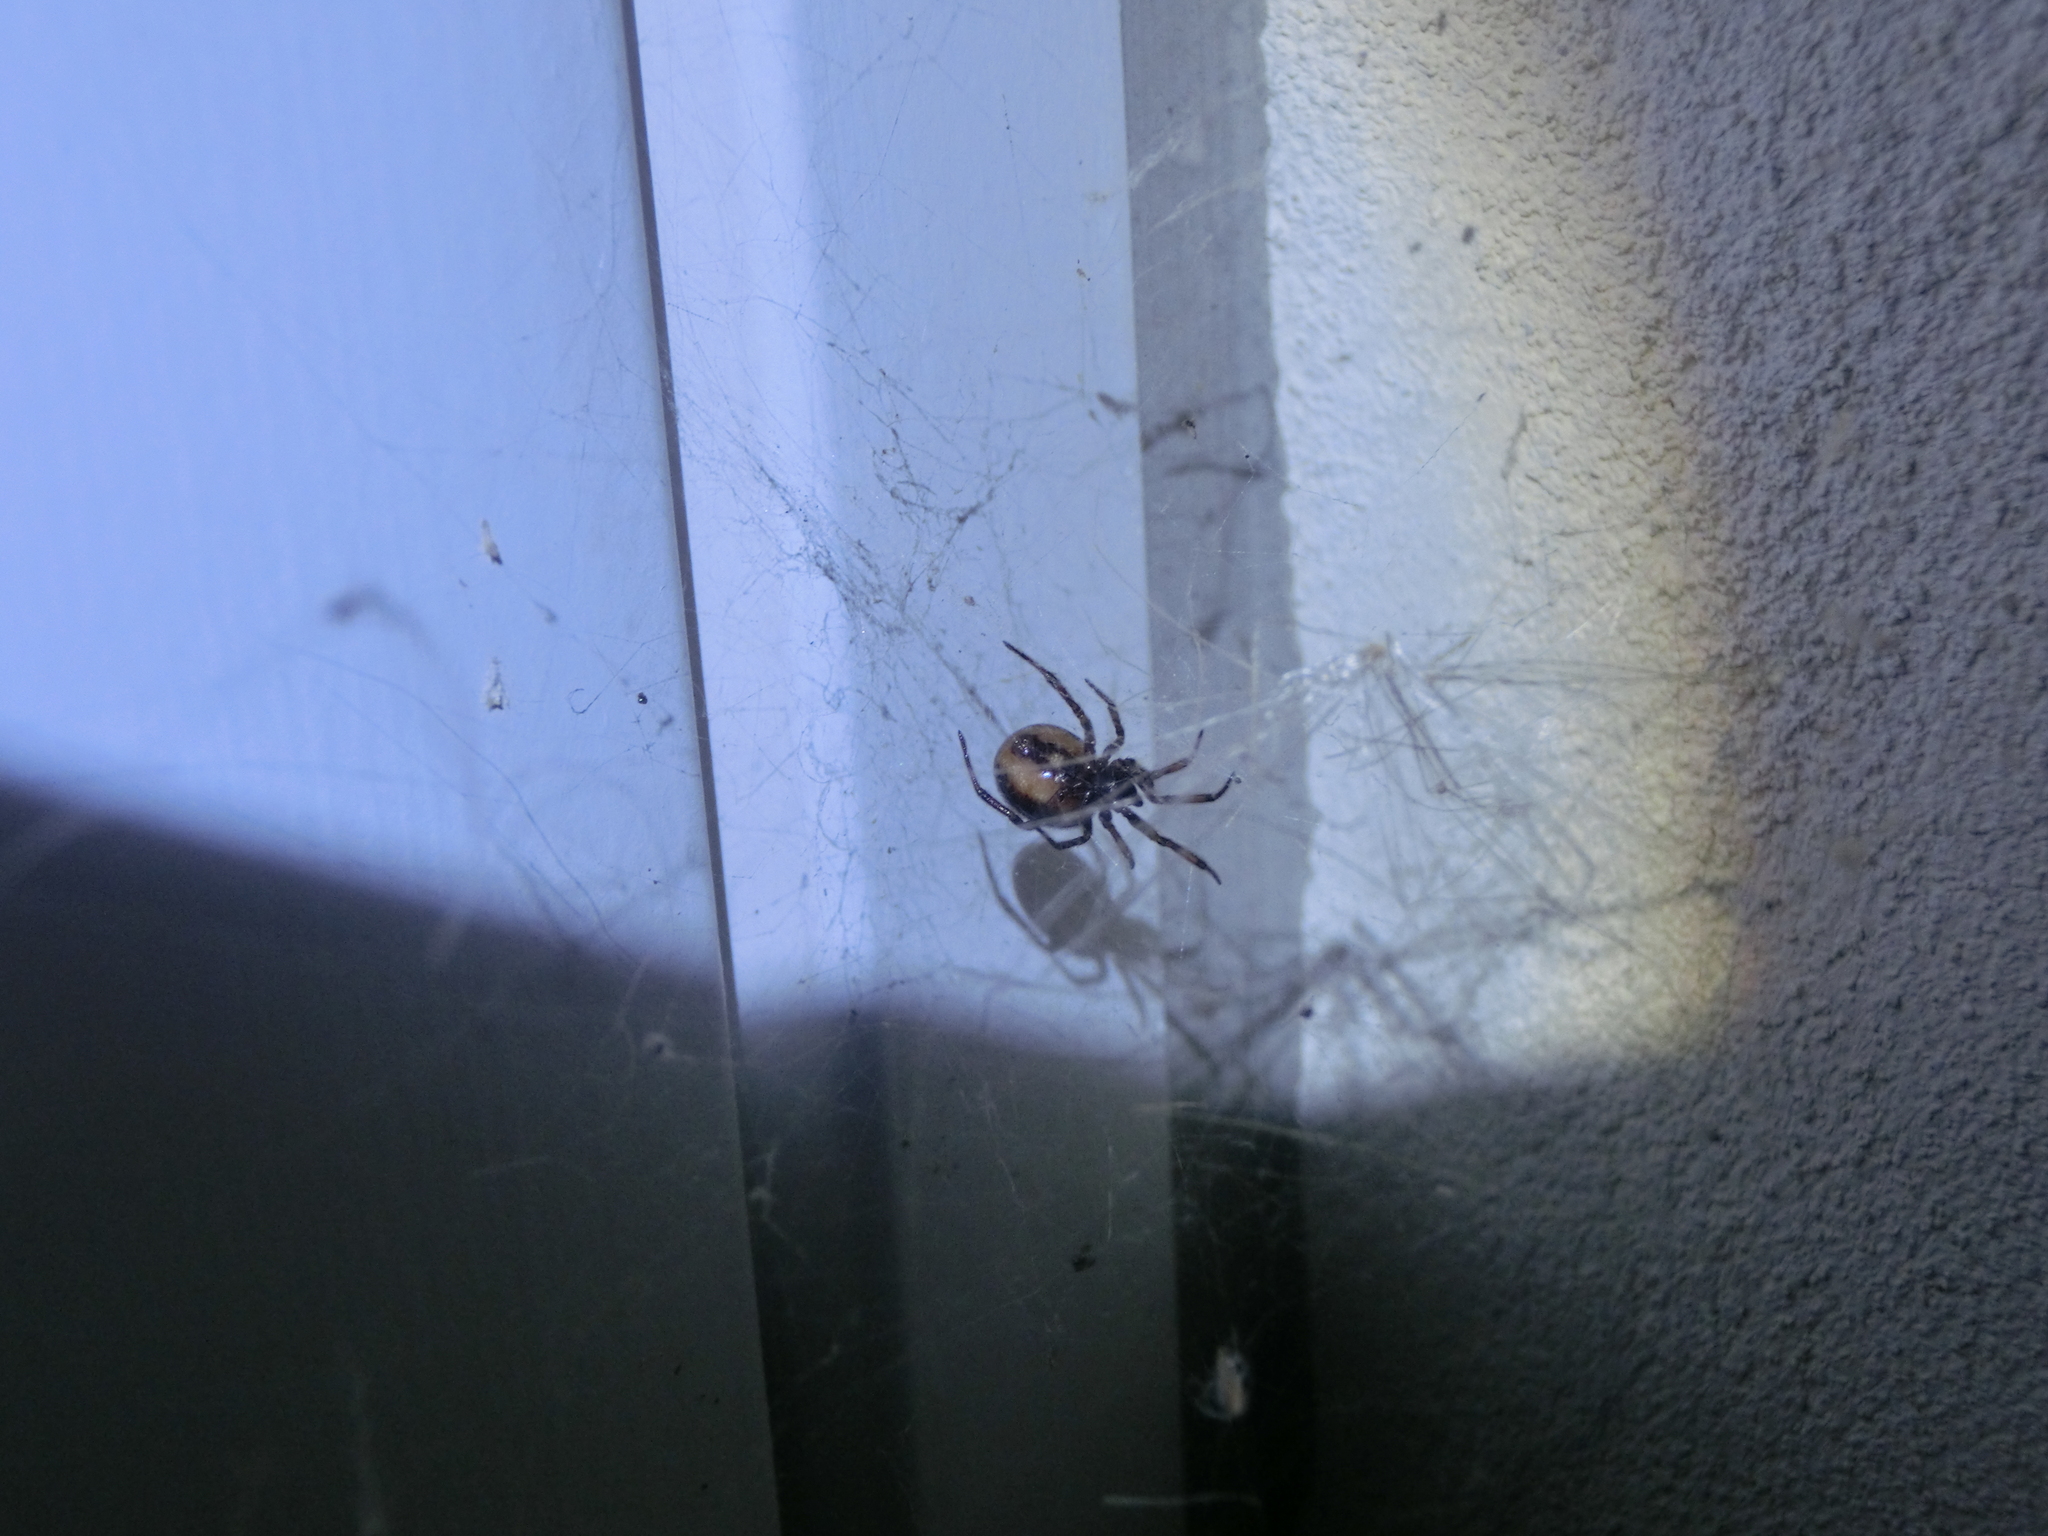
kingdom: Animalia
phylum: Arthropoda
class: Arachnida
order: Araneae
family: Theridiidae
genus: Steatoda
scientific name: Steatoda bipunctata
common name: False widow
